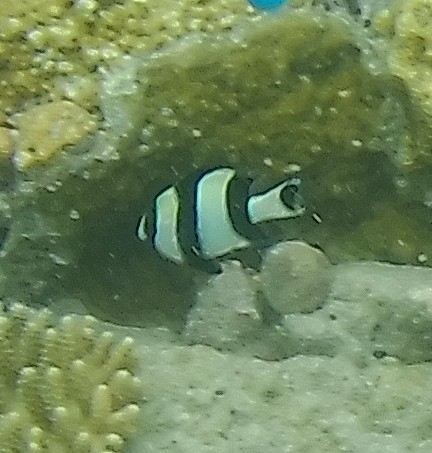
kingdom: Animalia
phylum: Chordata
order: Perciformes
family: Pomacentridae
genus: Dascyllus
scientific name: Dascyllus melanurus
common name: Black-tail dascyllus
